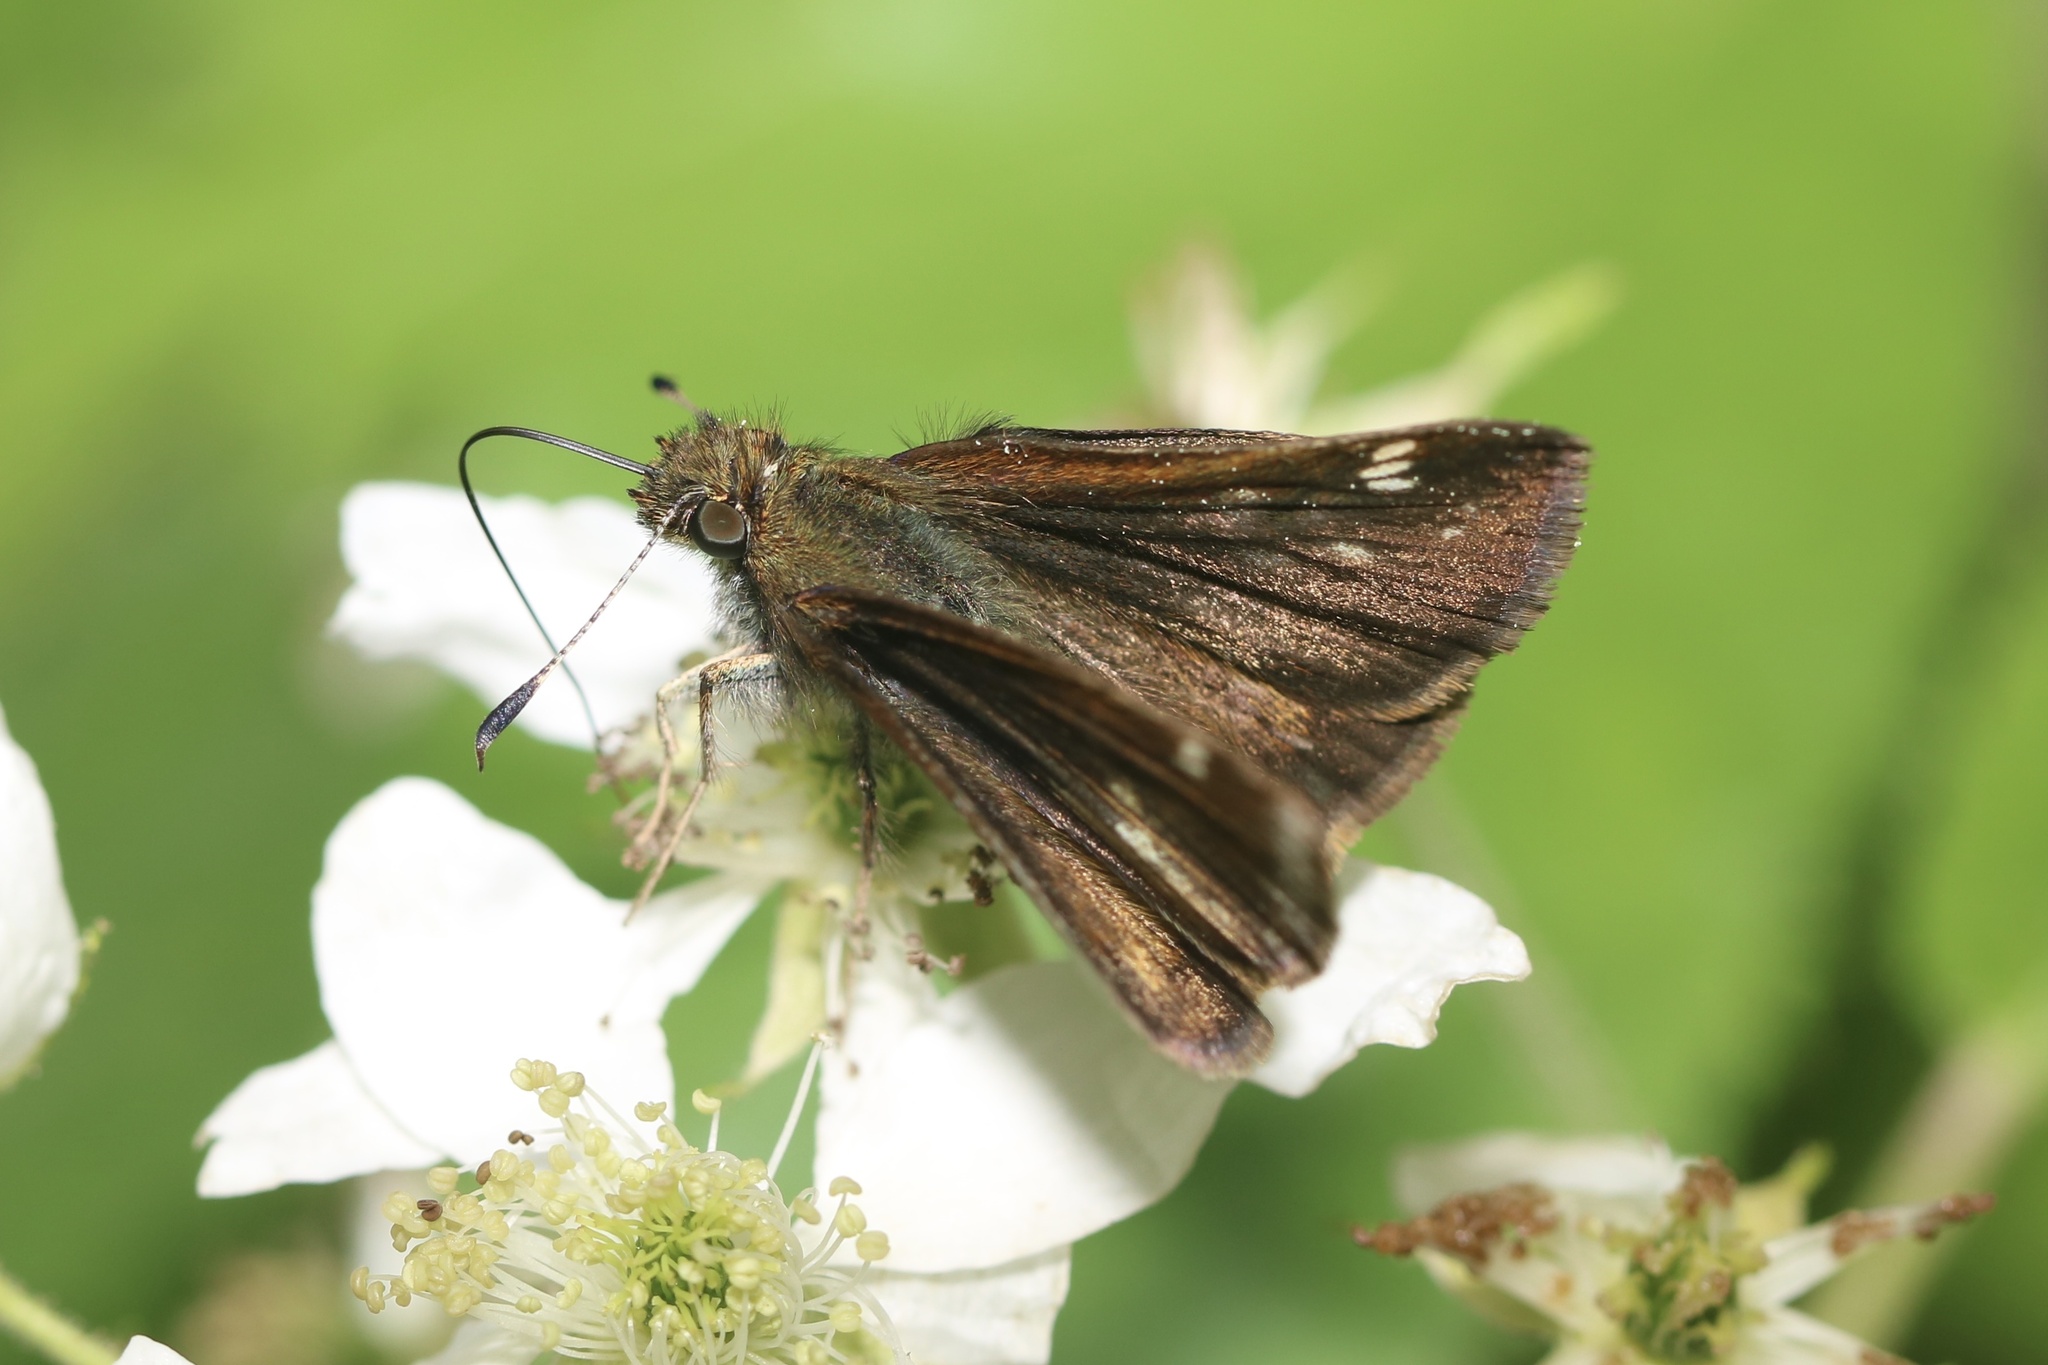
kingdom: Animalia
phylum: Arthropoda
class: Insecta
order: Lepidoptera
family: Hesperiidae
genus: Erynnis
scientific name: Erynnis icelus
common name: Dreamy duskywing
